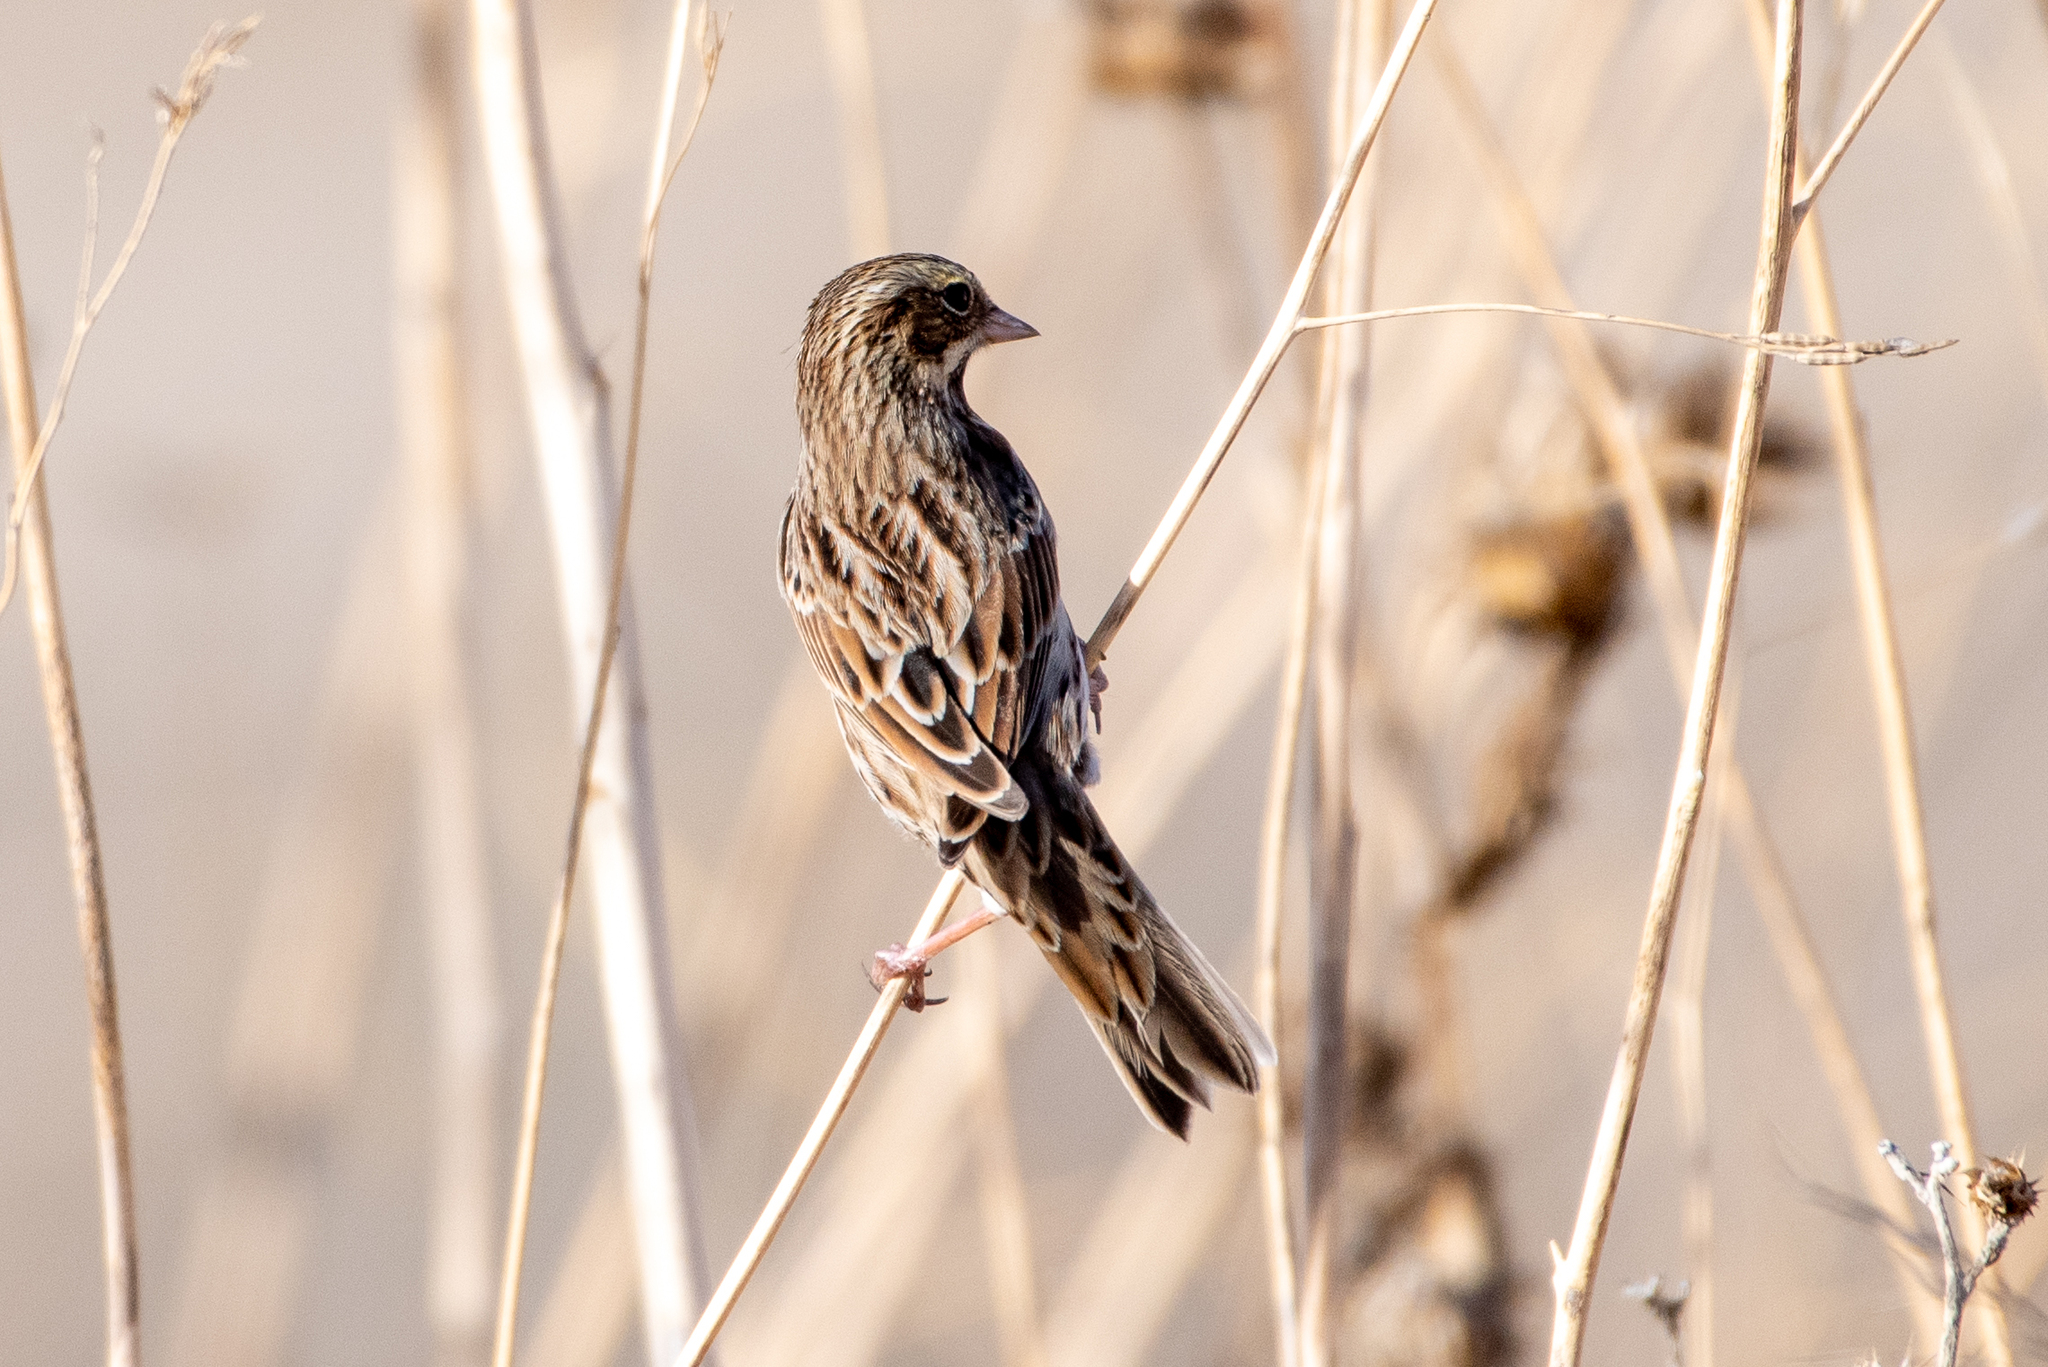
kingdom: Animalia
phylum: Chordata
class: Aves
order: Passeriformes
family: Passerellidae
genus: Passerculus
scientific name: Passerculus sandwichensis
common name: Savannah sparrow
